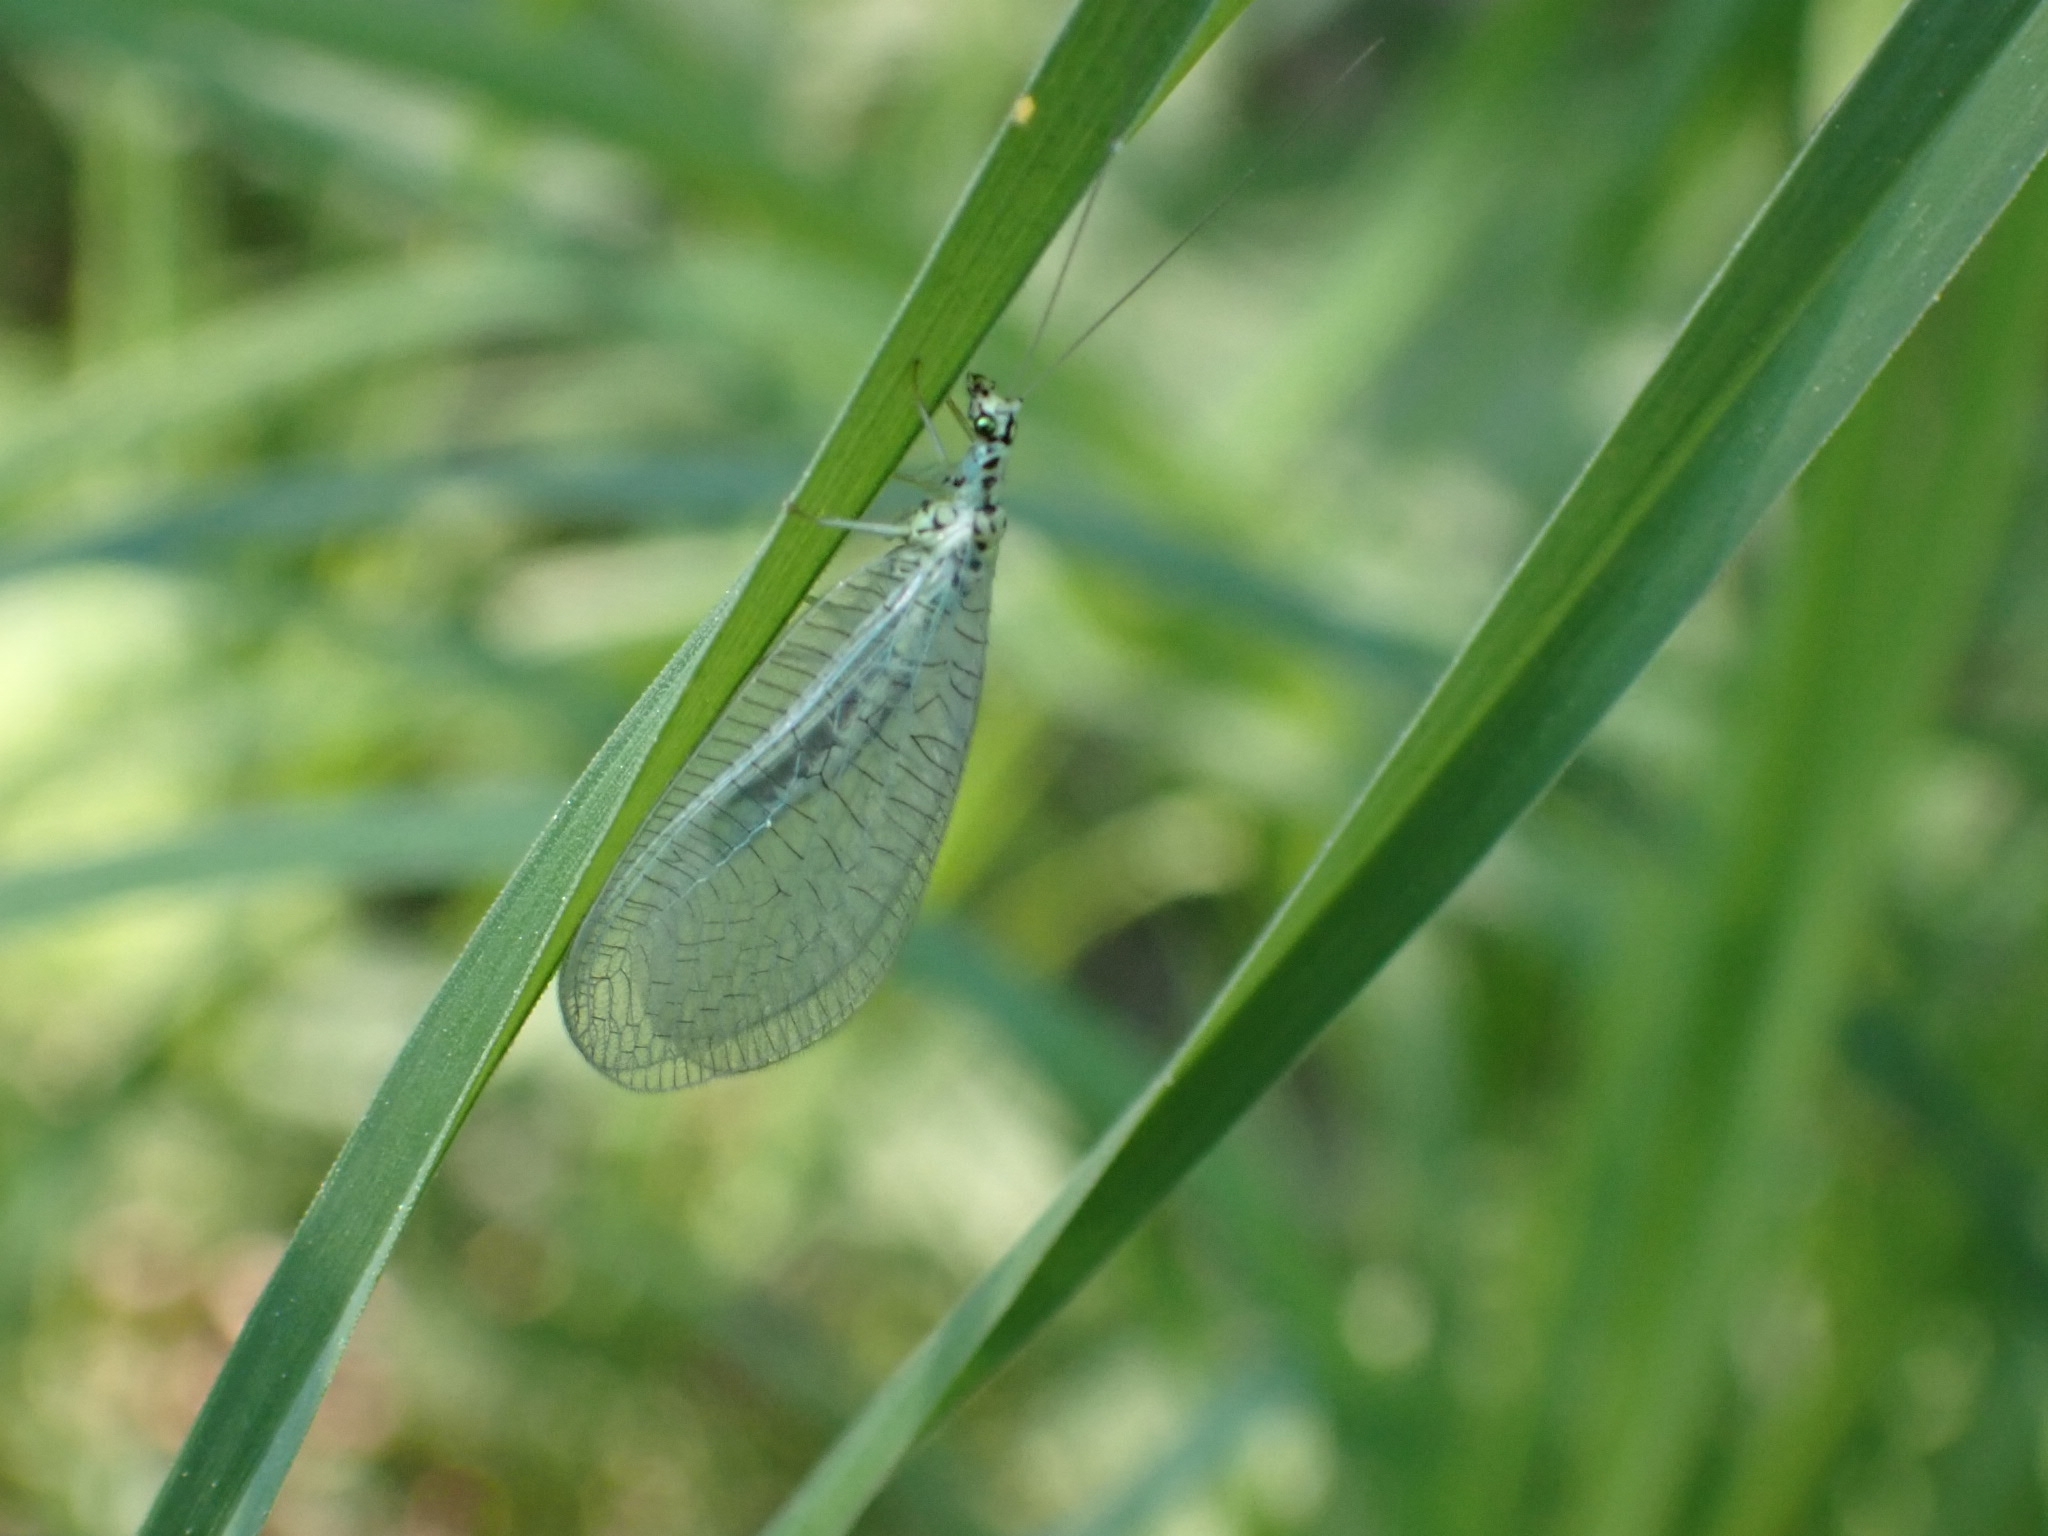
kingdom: Animalia
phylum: Arthropoda
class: Insecta
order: Neuroptera
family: Chrysopidae
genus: Chrysopa
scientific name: Chrysopa perla
